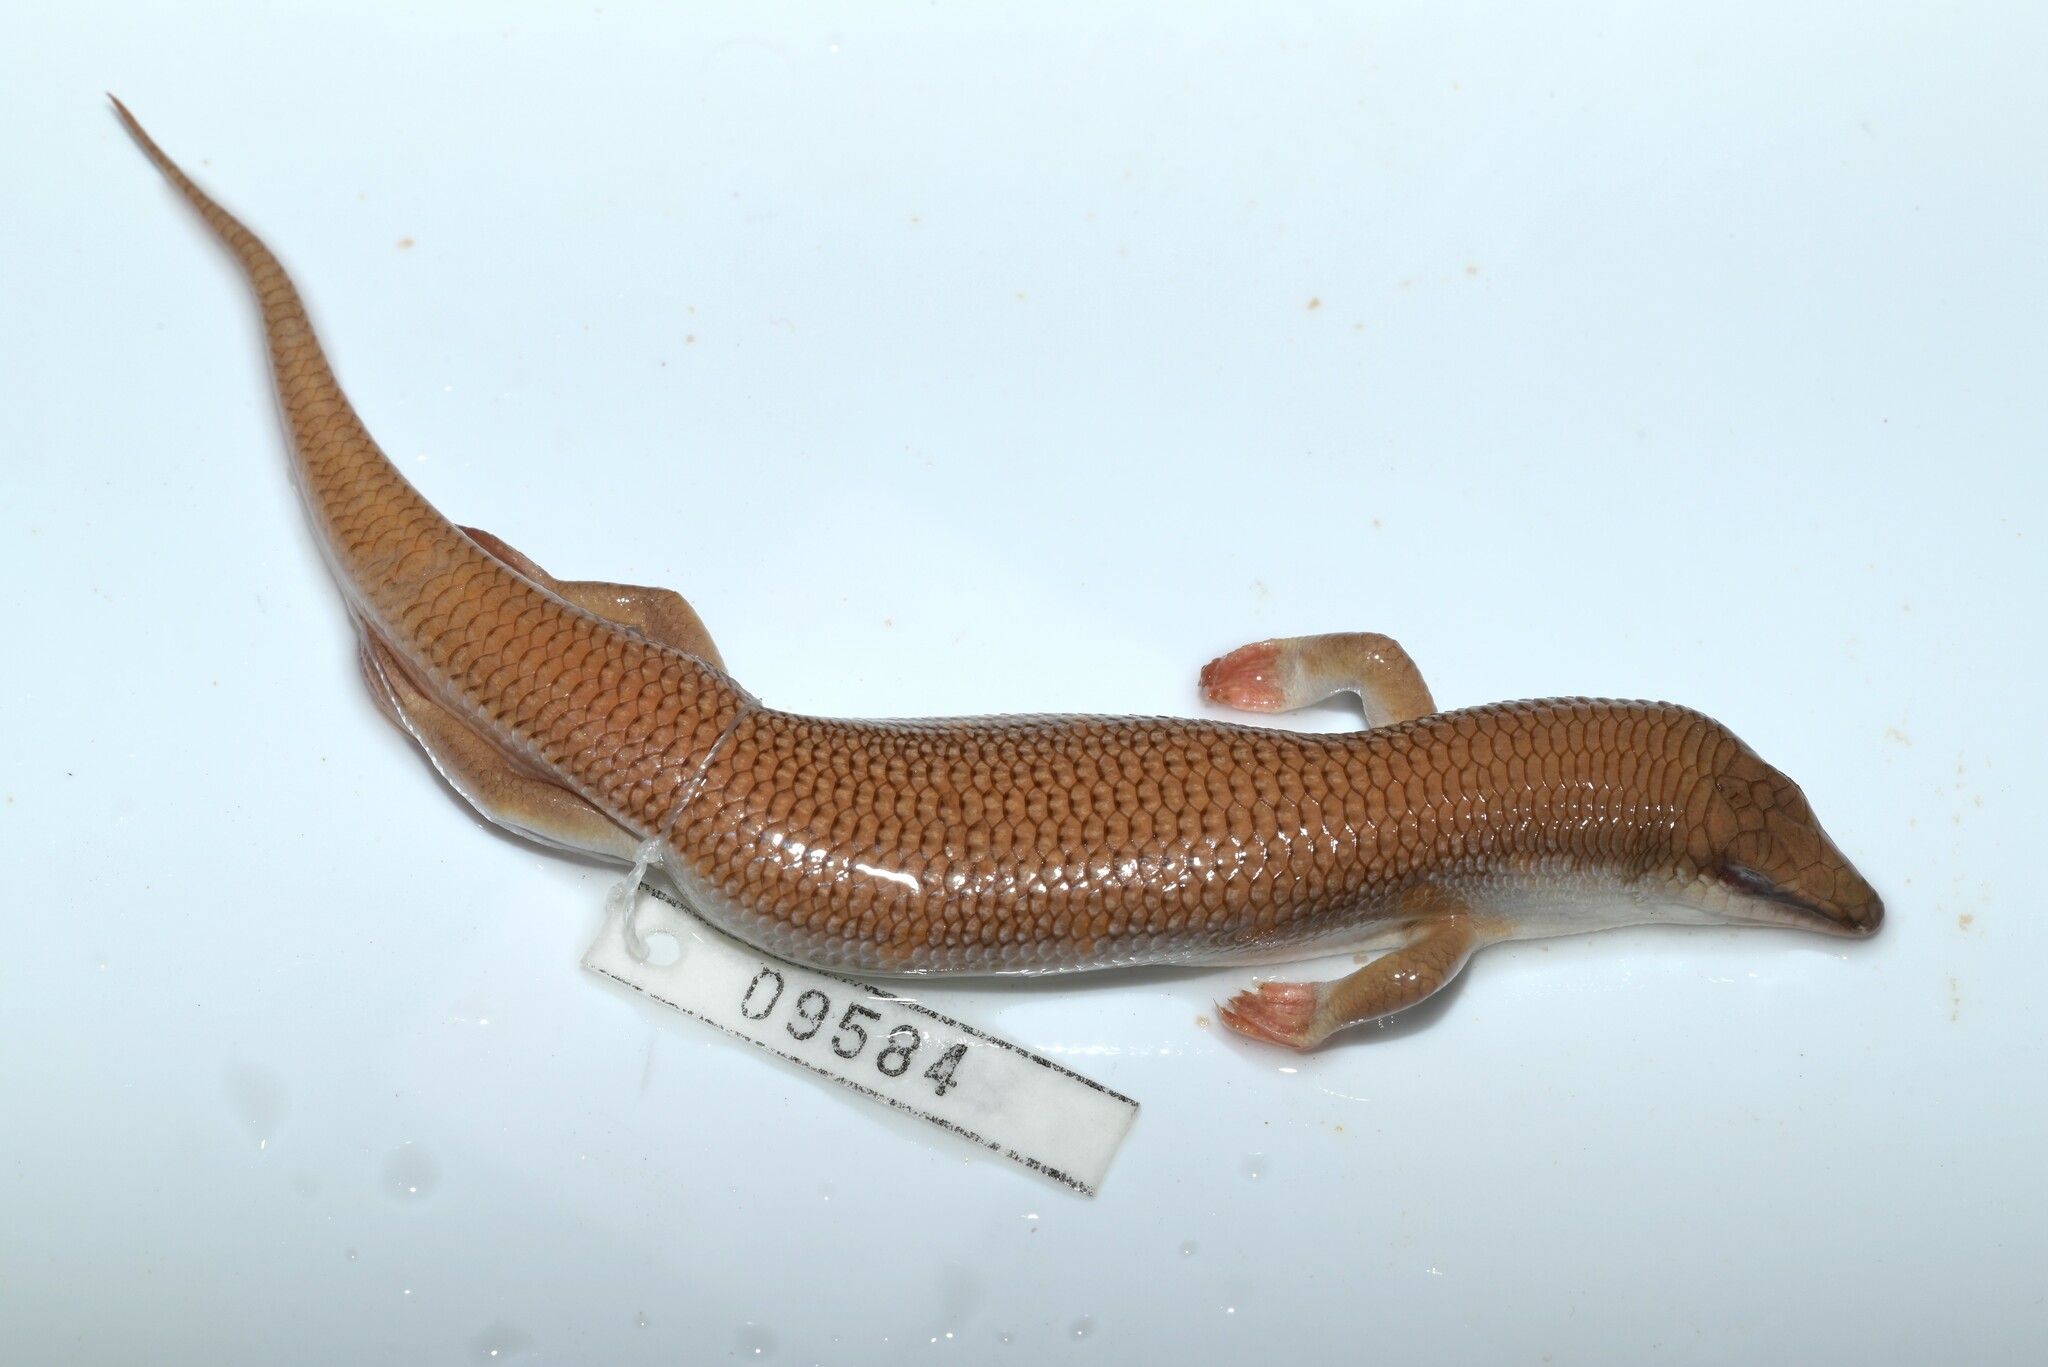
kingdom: Animalia
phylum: Chordata
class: Squamata
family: Scincidae
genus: Scincus
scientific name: Scincus conirostris
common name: Sandfish skink
